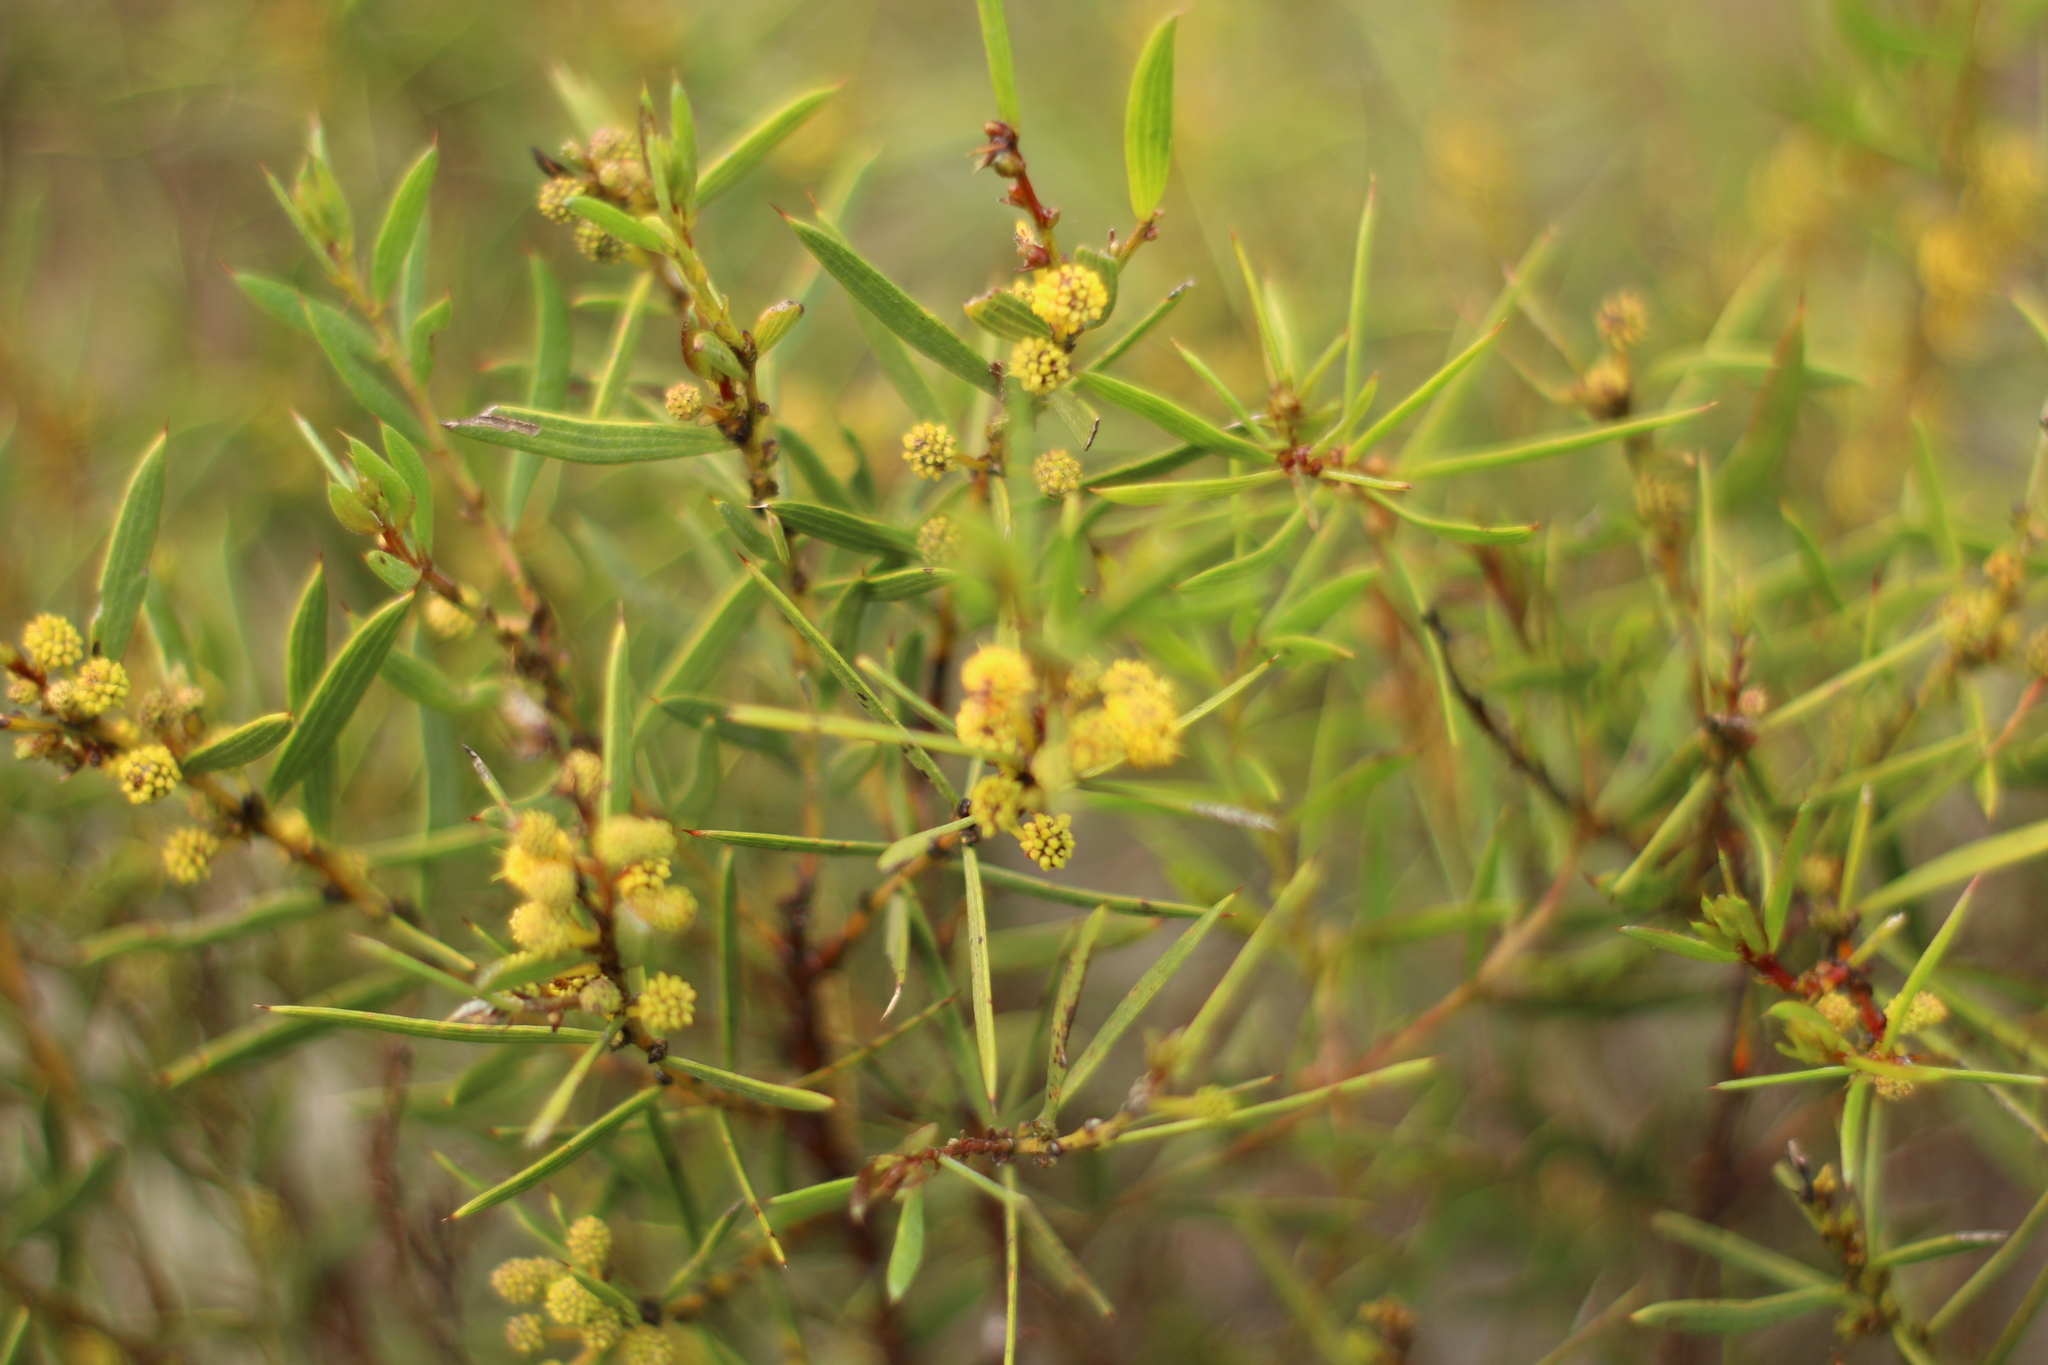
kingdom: Plantae
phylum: Tracheophyta
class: Magnoliopsida
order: Fabales
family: Fabaceae
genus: Acacia
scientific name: Acacia cochlearis
